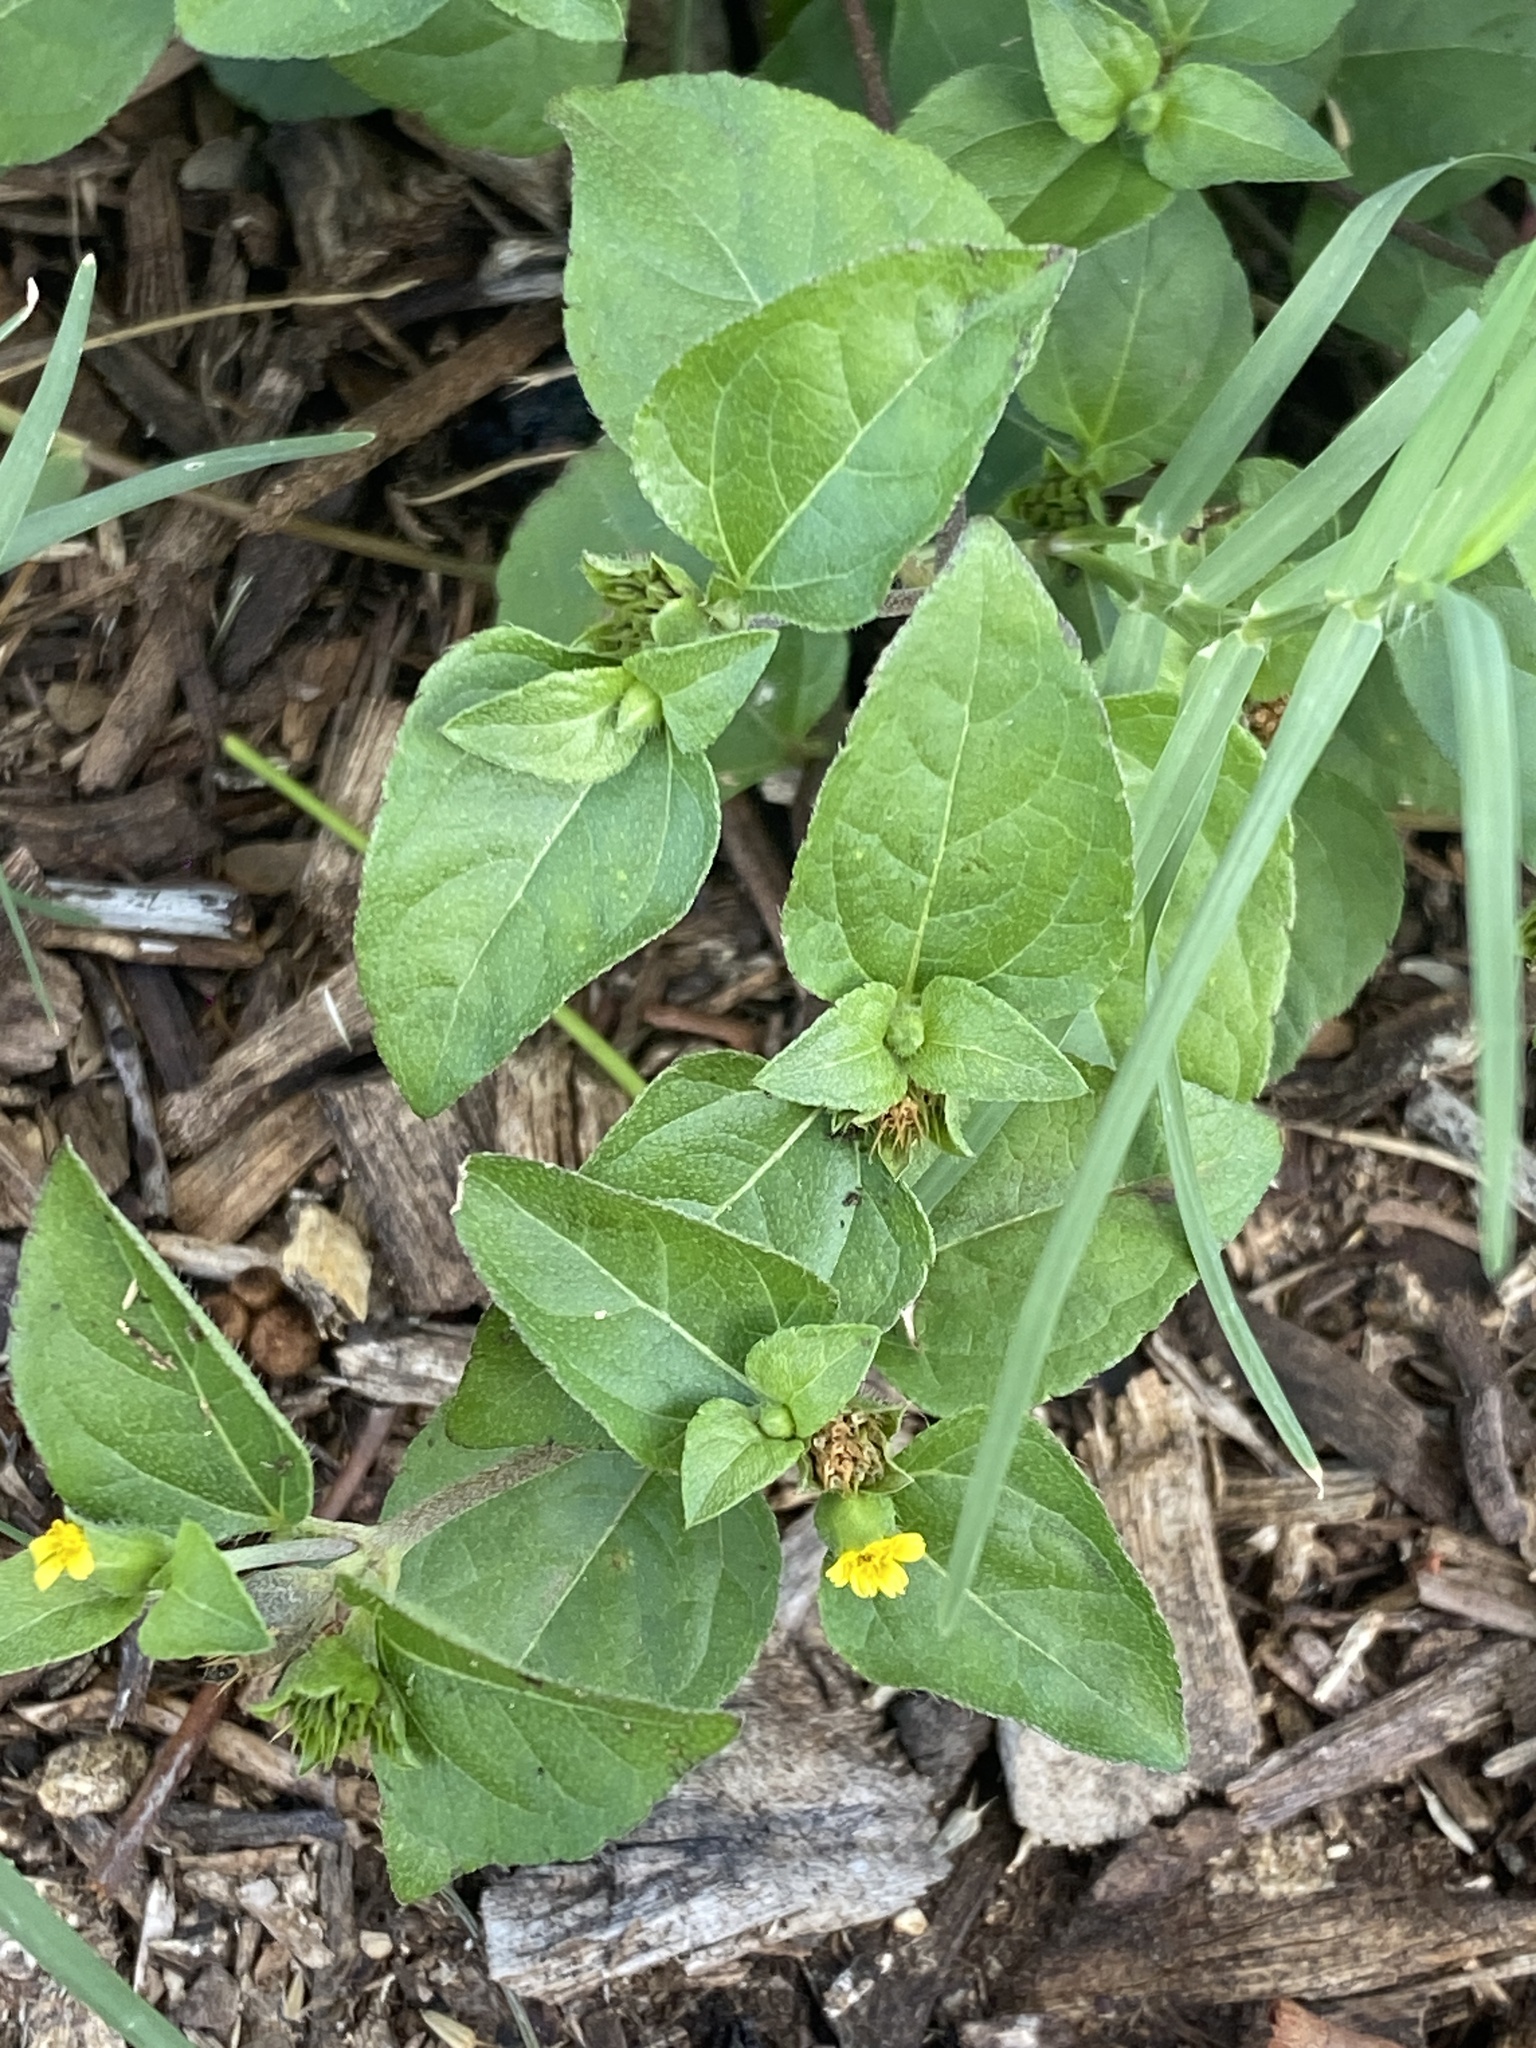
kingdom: Plantae
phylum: Tracheophyta
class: Magnoliopsida
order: Asterales
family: Asteraceae
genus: Calyptocarpus
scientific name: Calyptocarpus vialis
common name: Straggler daisy
